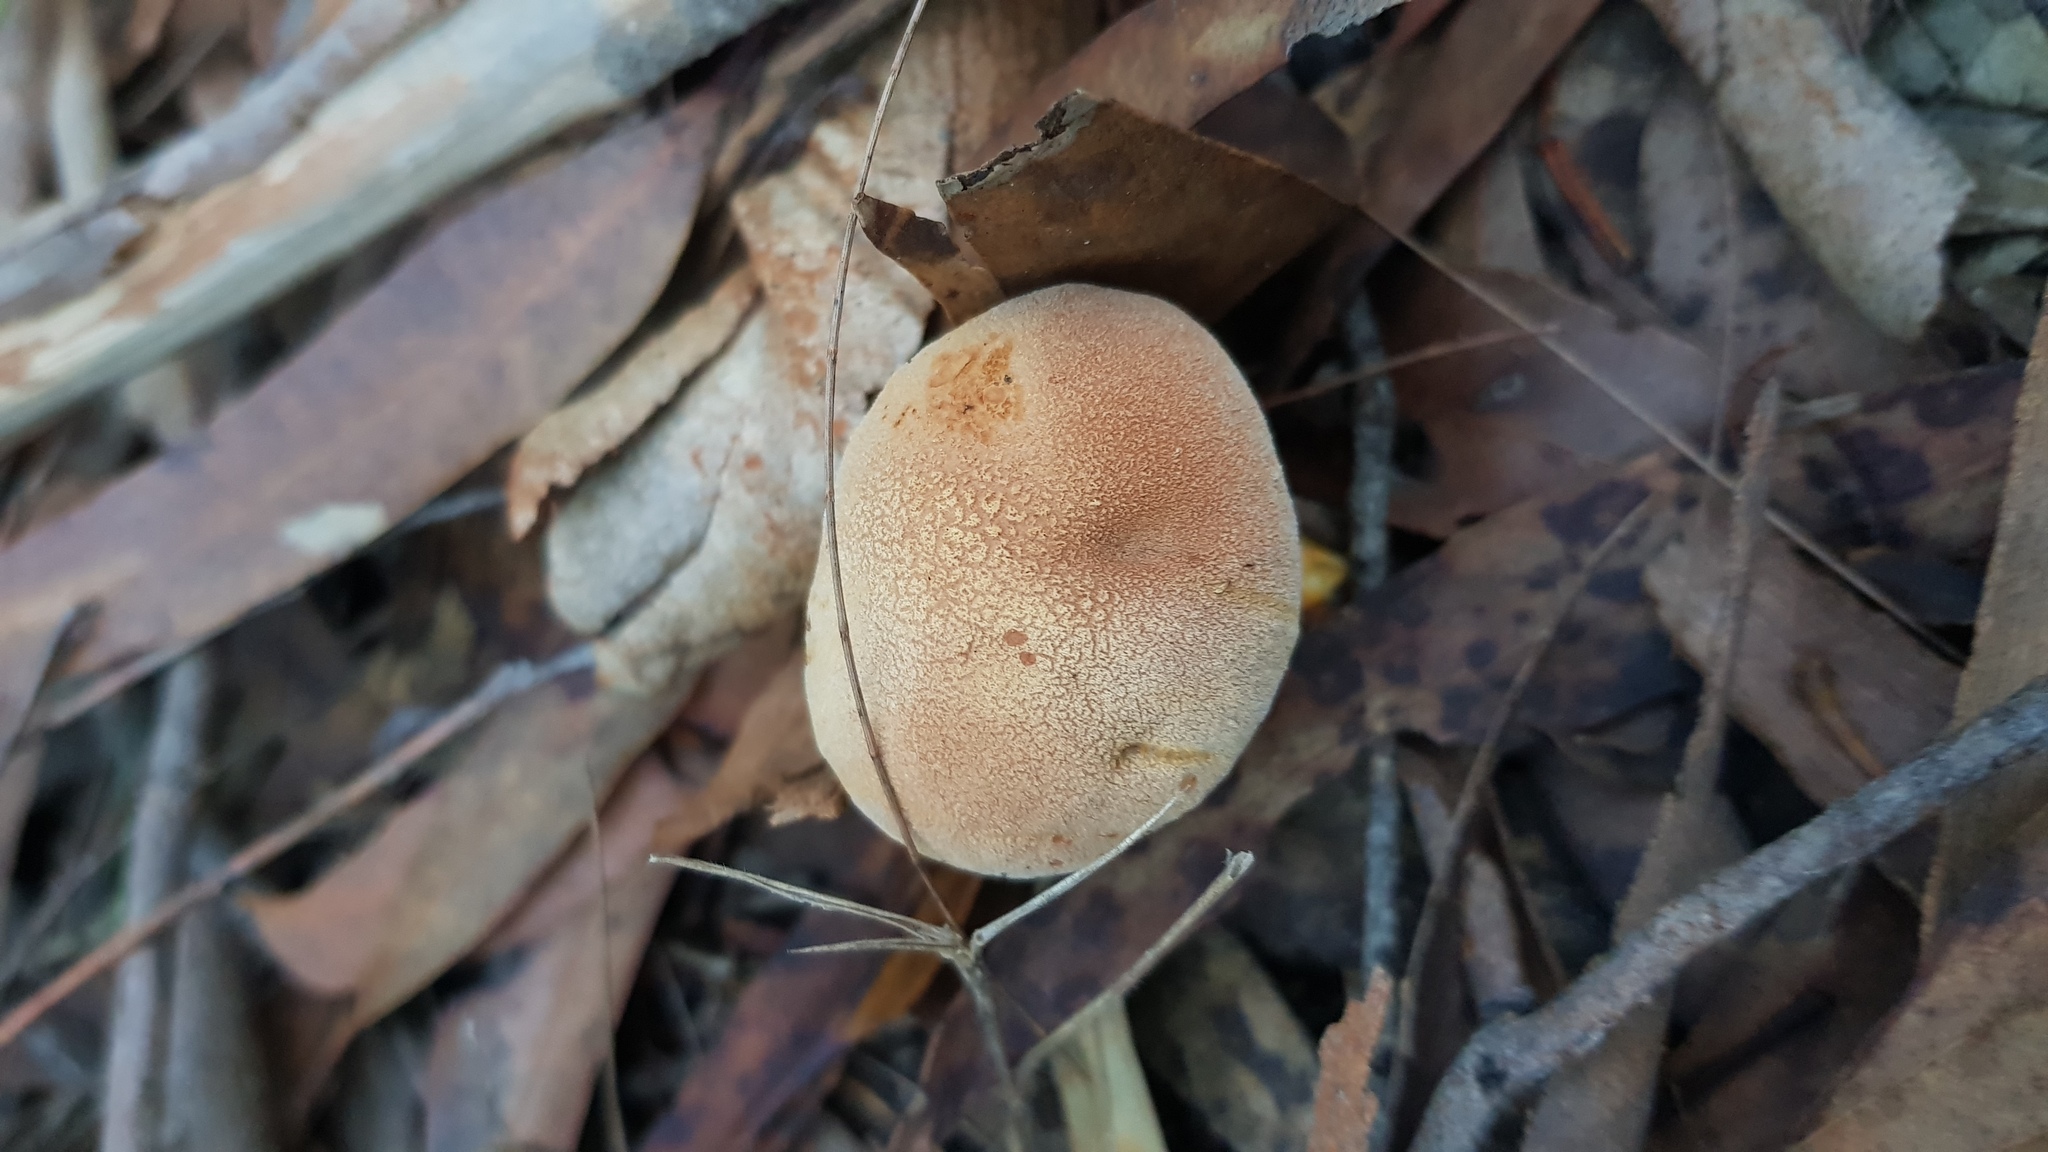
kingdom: Fungi
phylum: Basidiomycota
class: Agaricomycetes
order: Boletales
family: Boletaceae
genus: Austroboletus
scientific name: Austroboletus occidentalis
